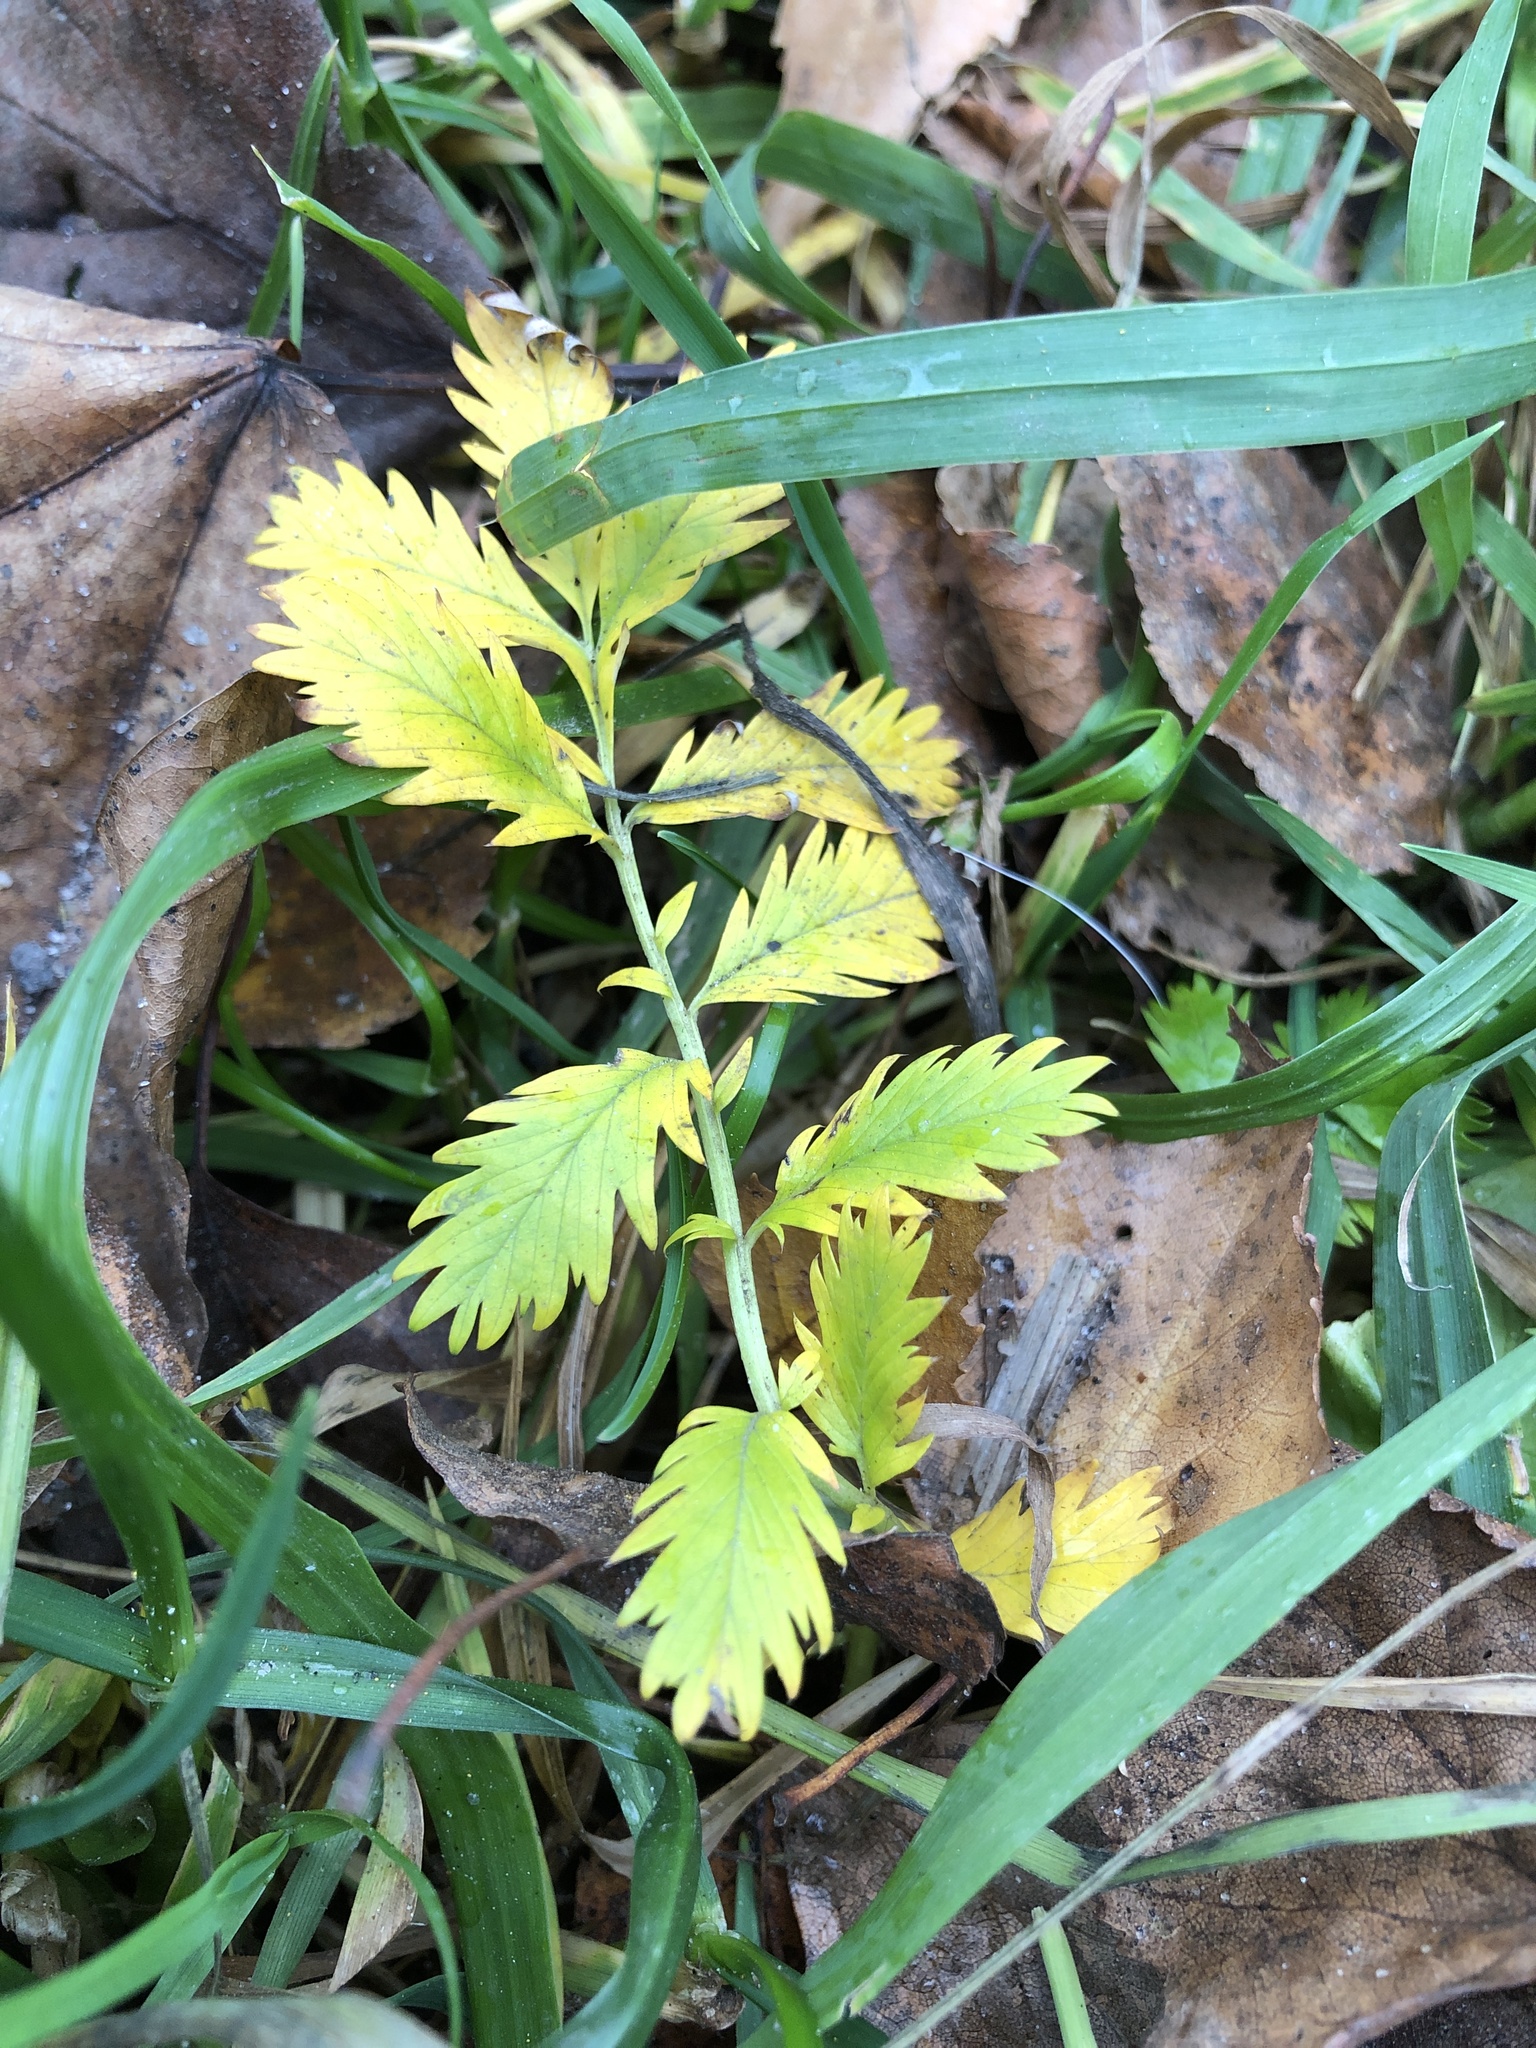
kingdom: Plantae
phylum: Tracheophyta
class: Magnoliopsida
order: Rosales
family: Rosaceae
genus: Argentina
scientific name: Argentina anserina
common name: Common silverweed
